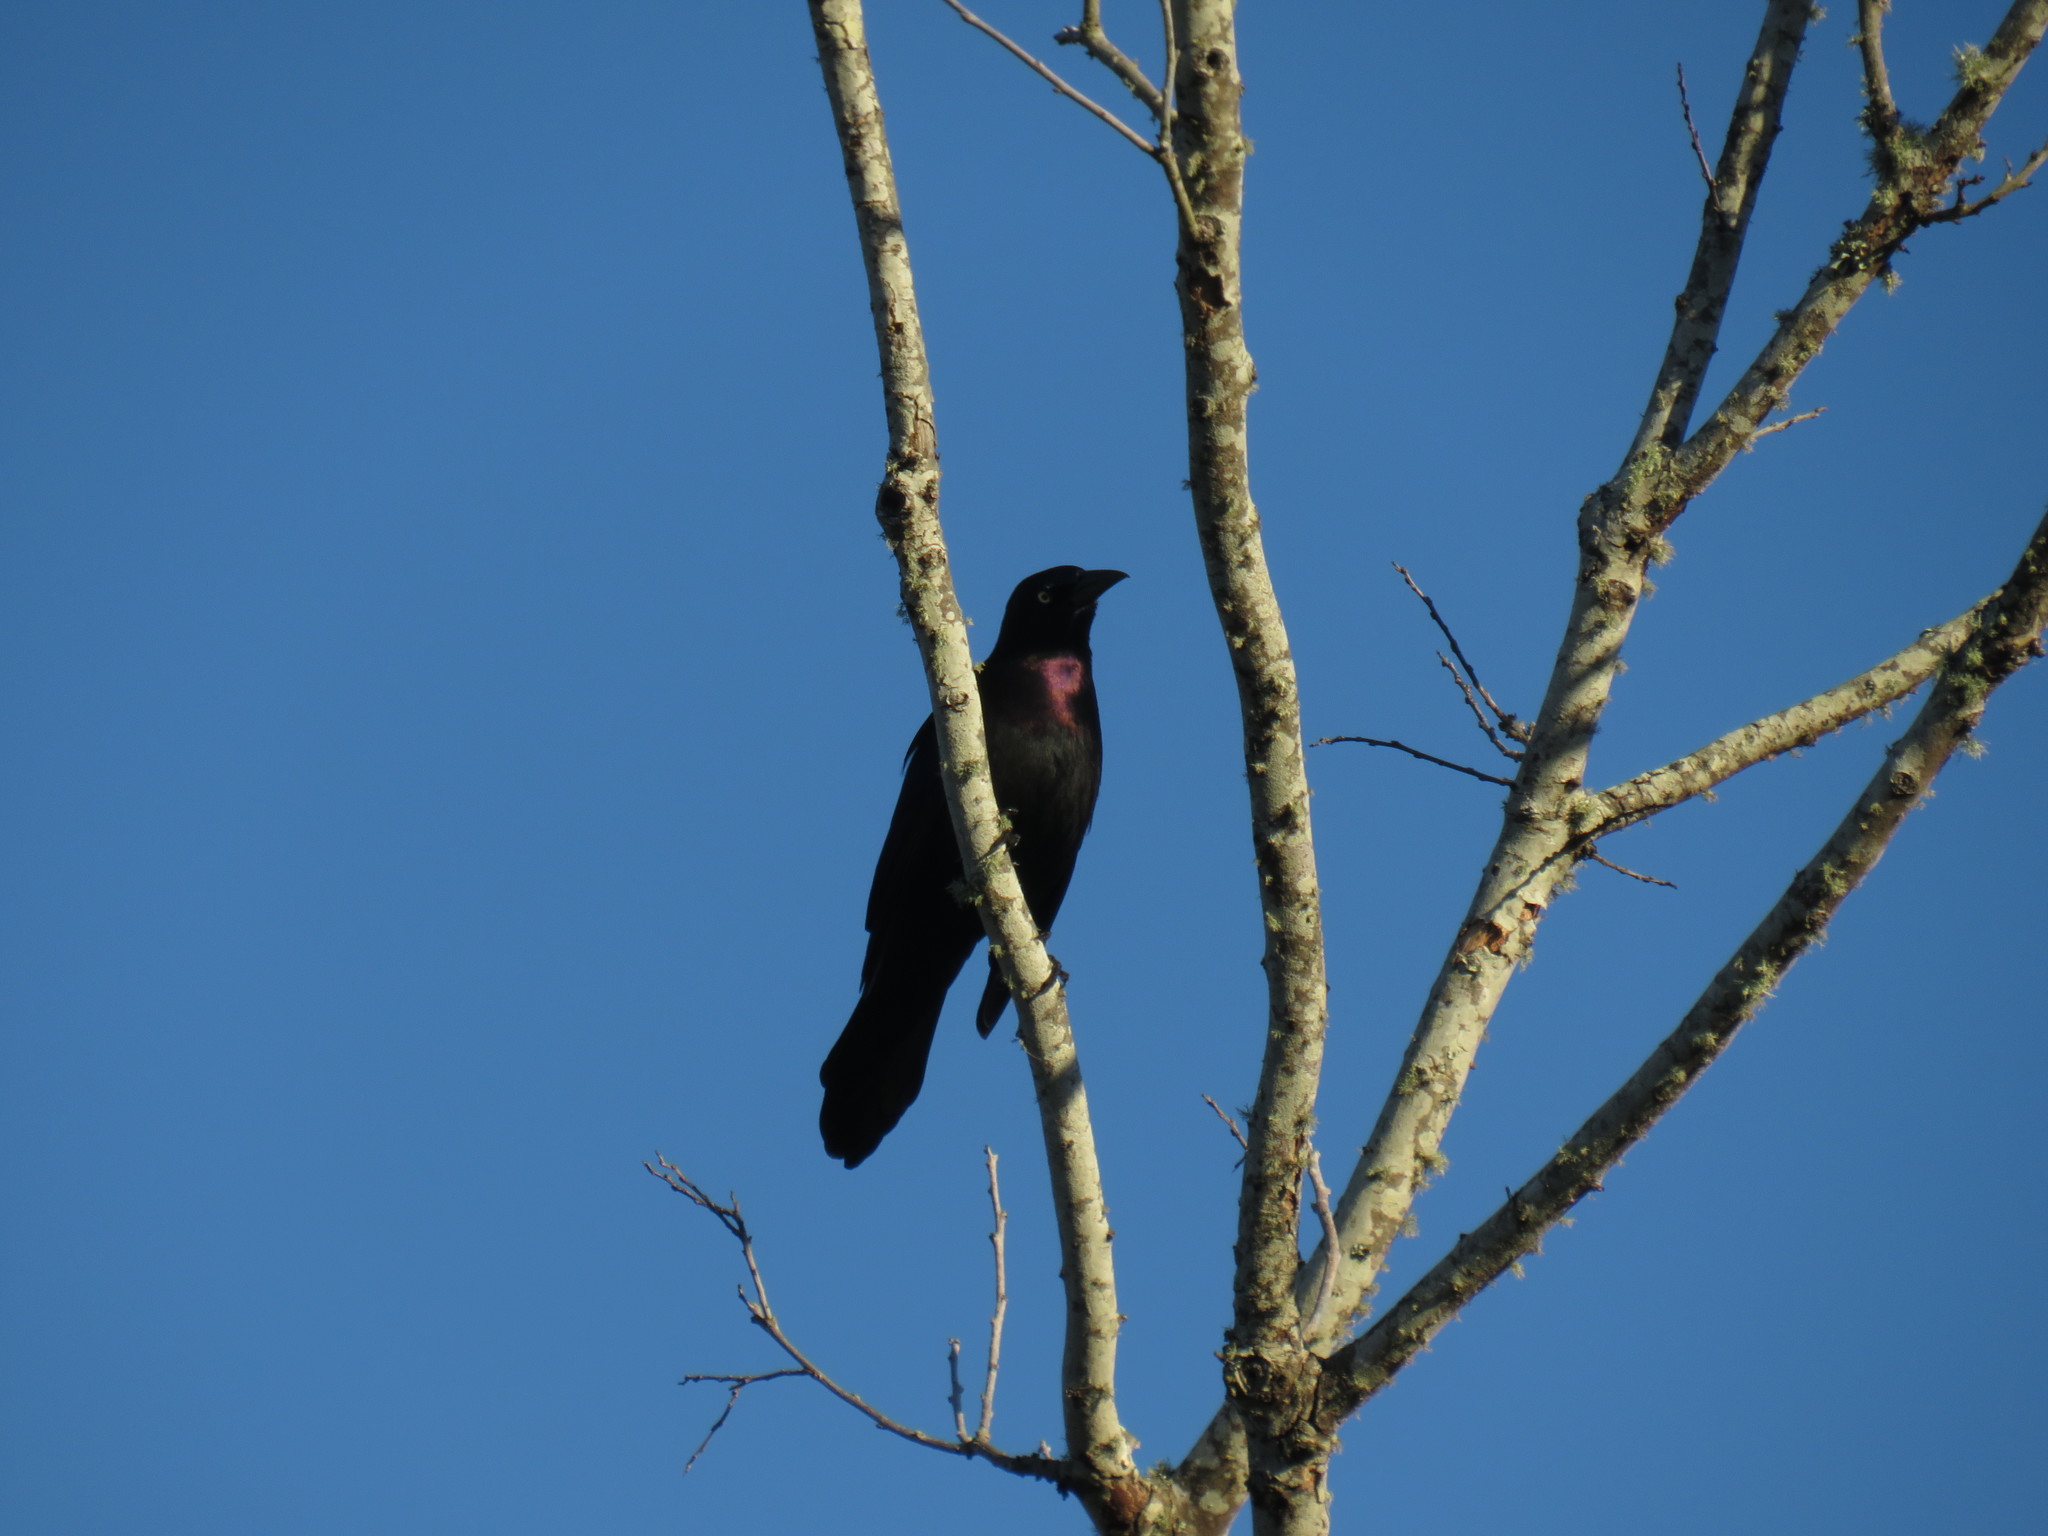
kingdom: Animalia
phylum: Chordata
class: Aves
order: Passeriformes
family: Icteridae
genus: Quiscalus
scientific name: Quiscalus quiscula
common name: Common grackle
